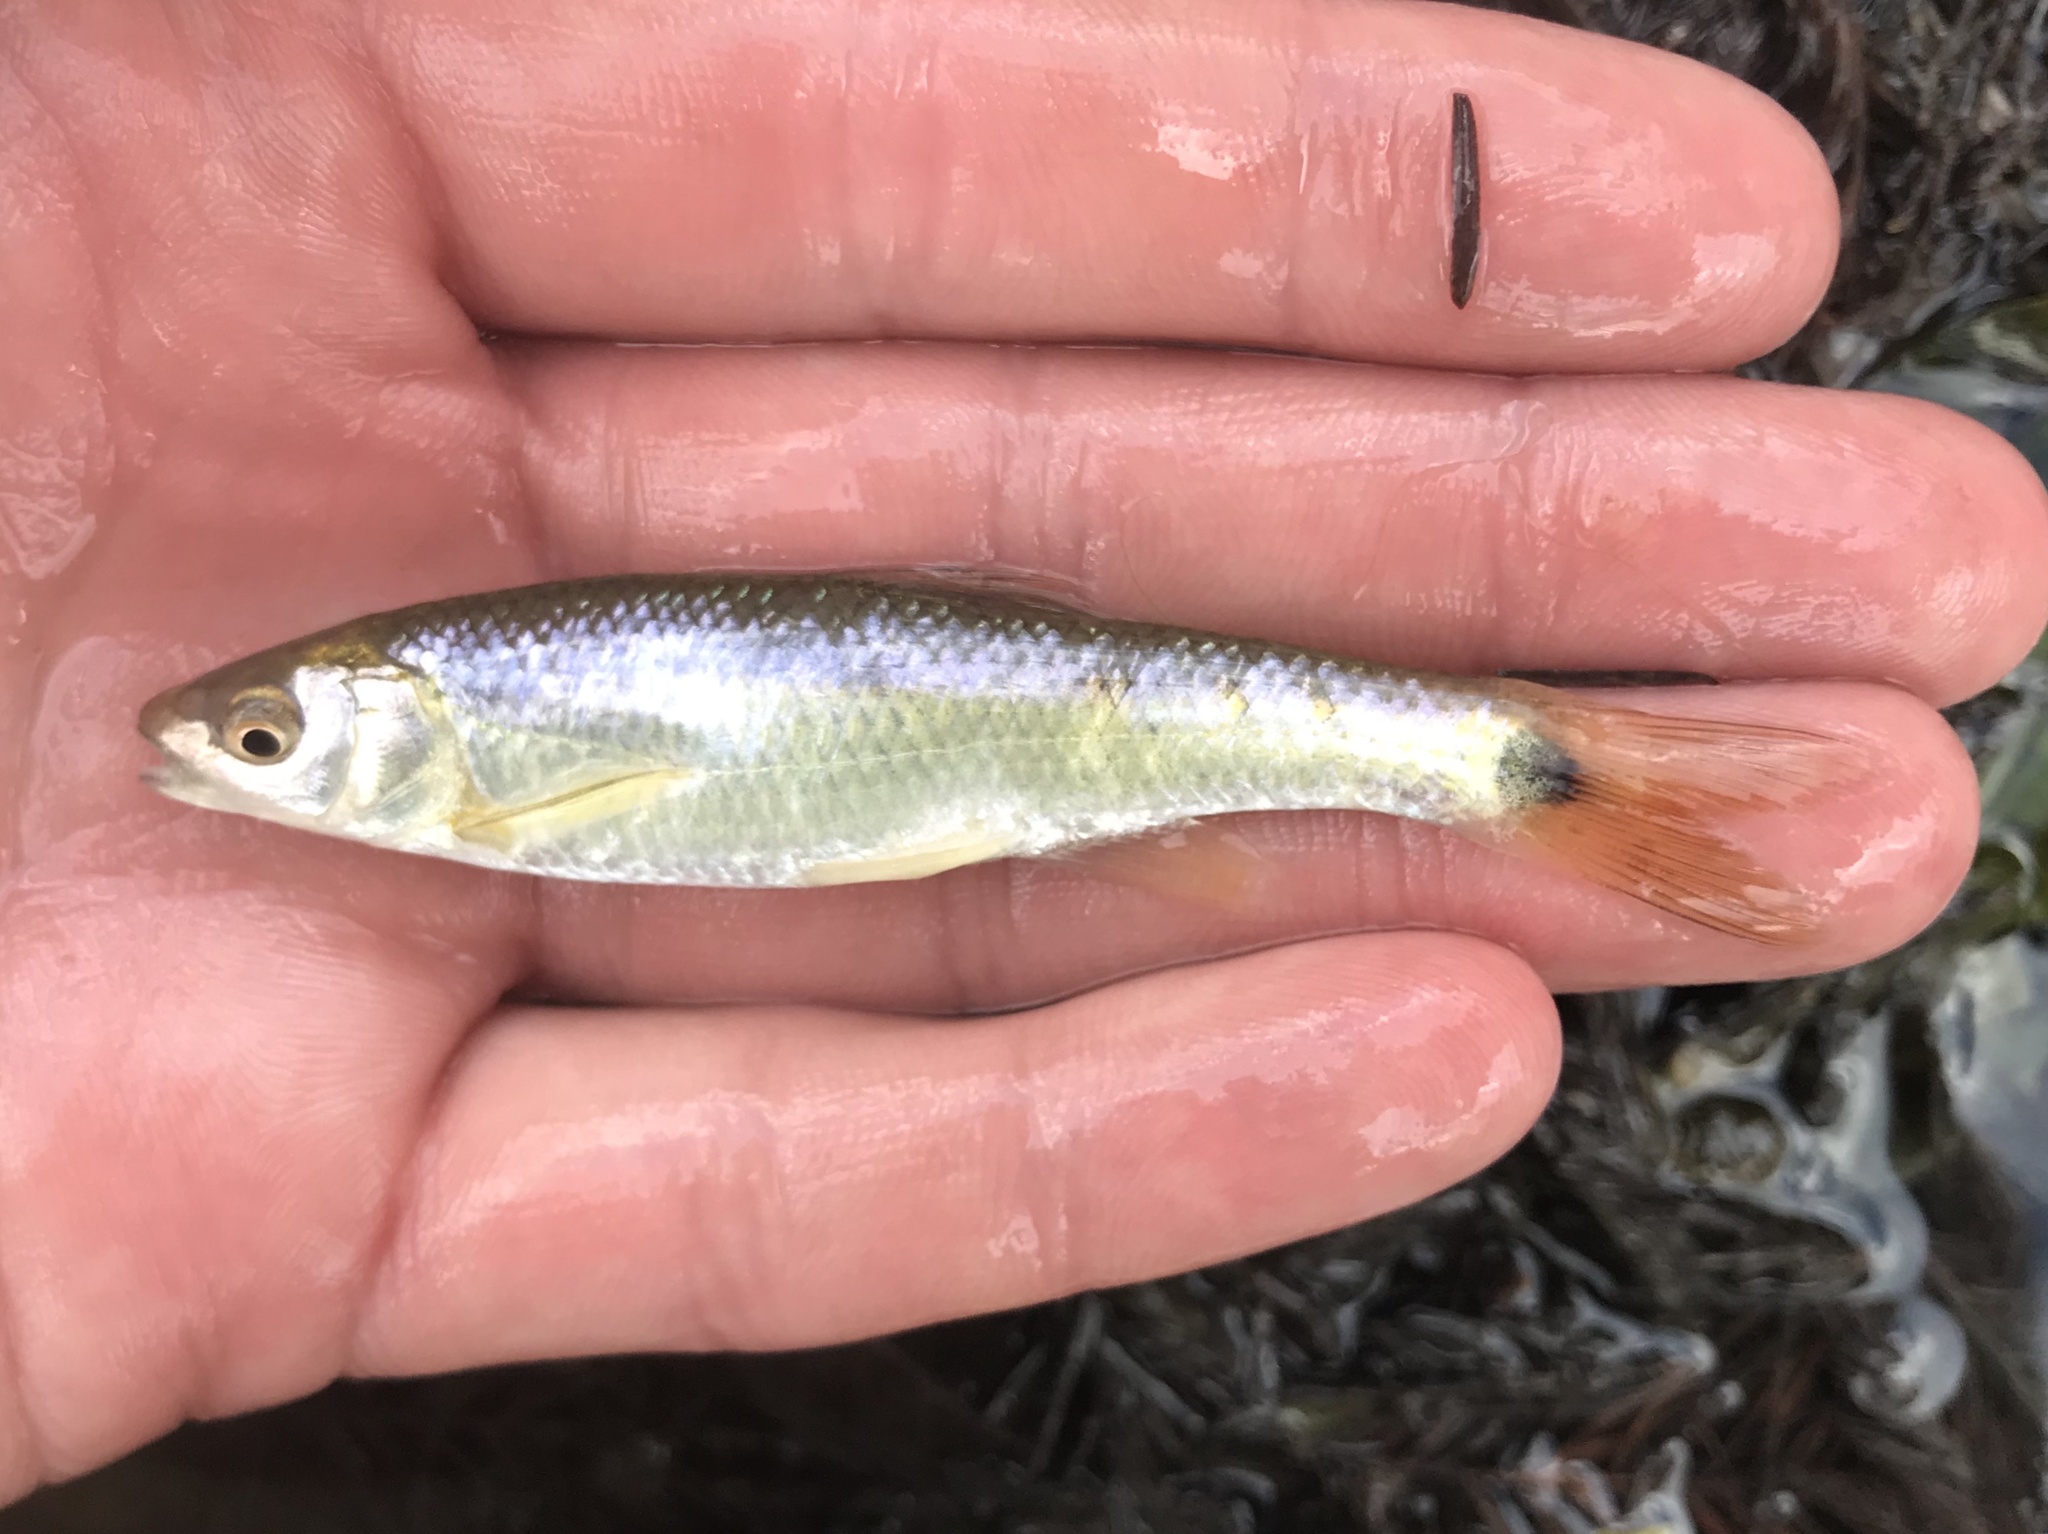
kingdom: Animalia
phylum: Chordata
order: Cypriniformes
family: Cyprinidae
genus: Cyprinella
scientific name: Cyprinella venusta
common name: Blacktail shiner
